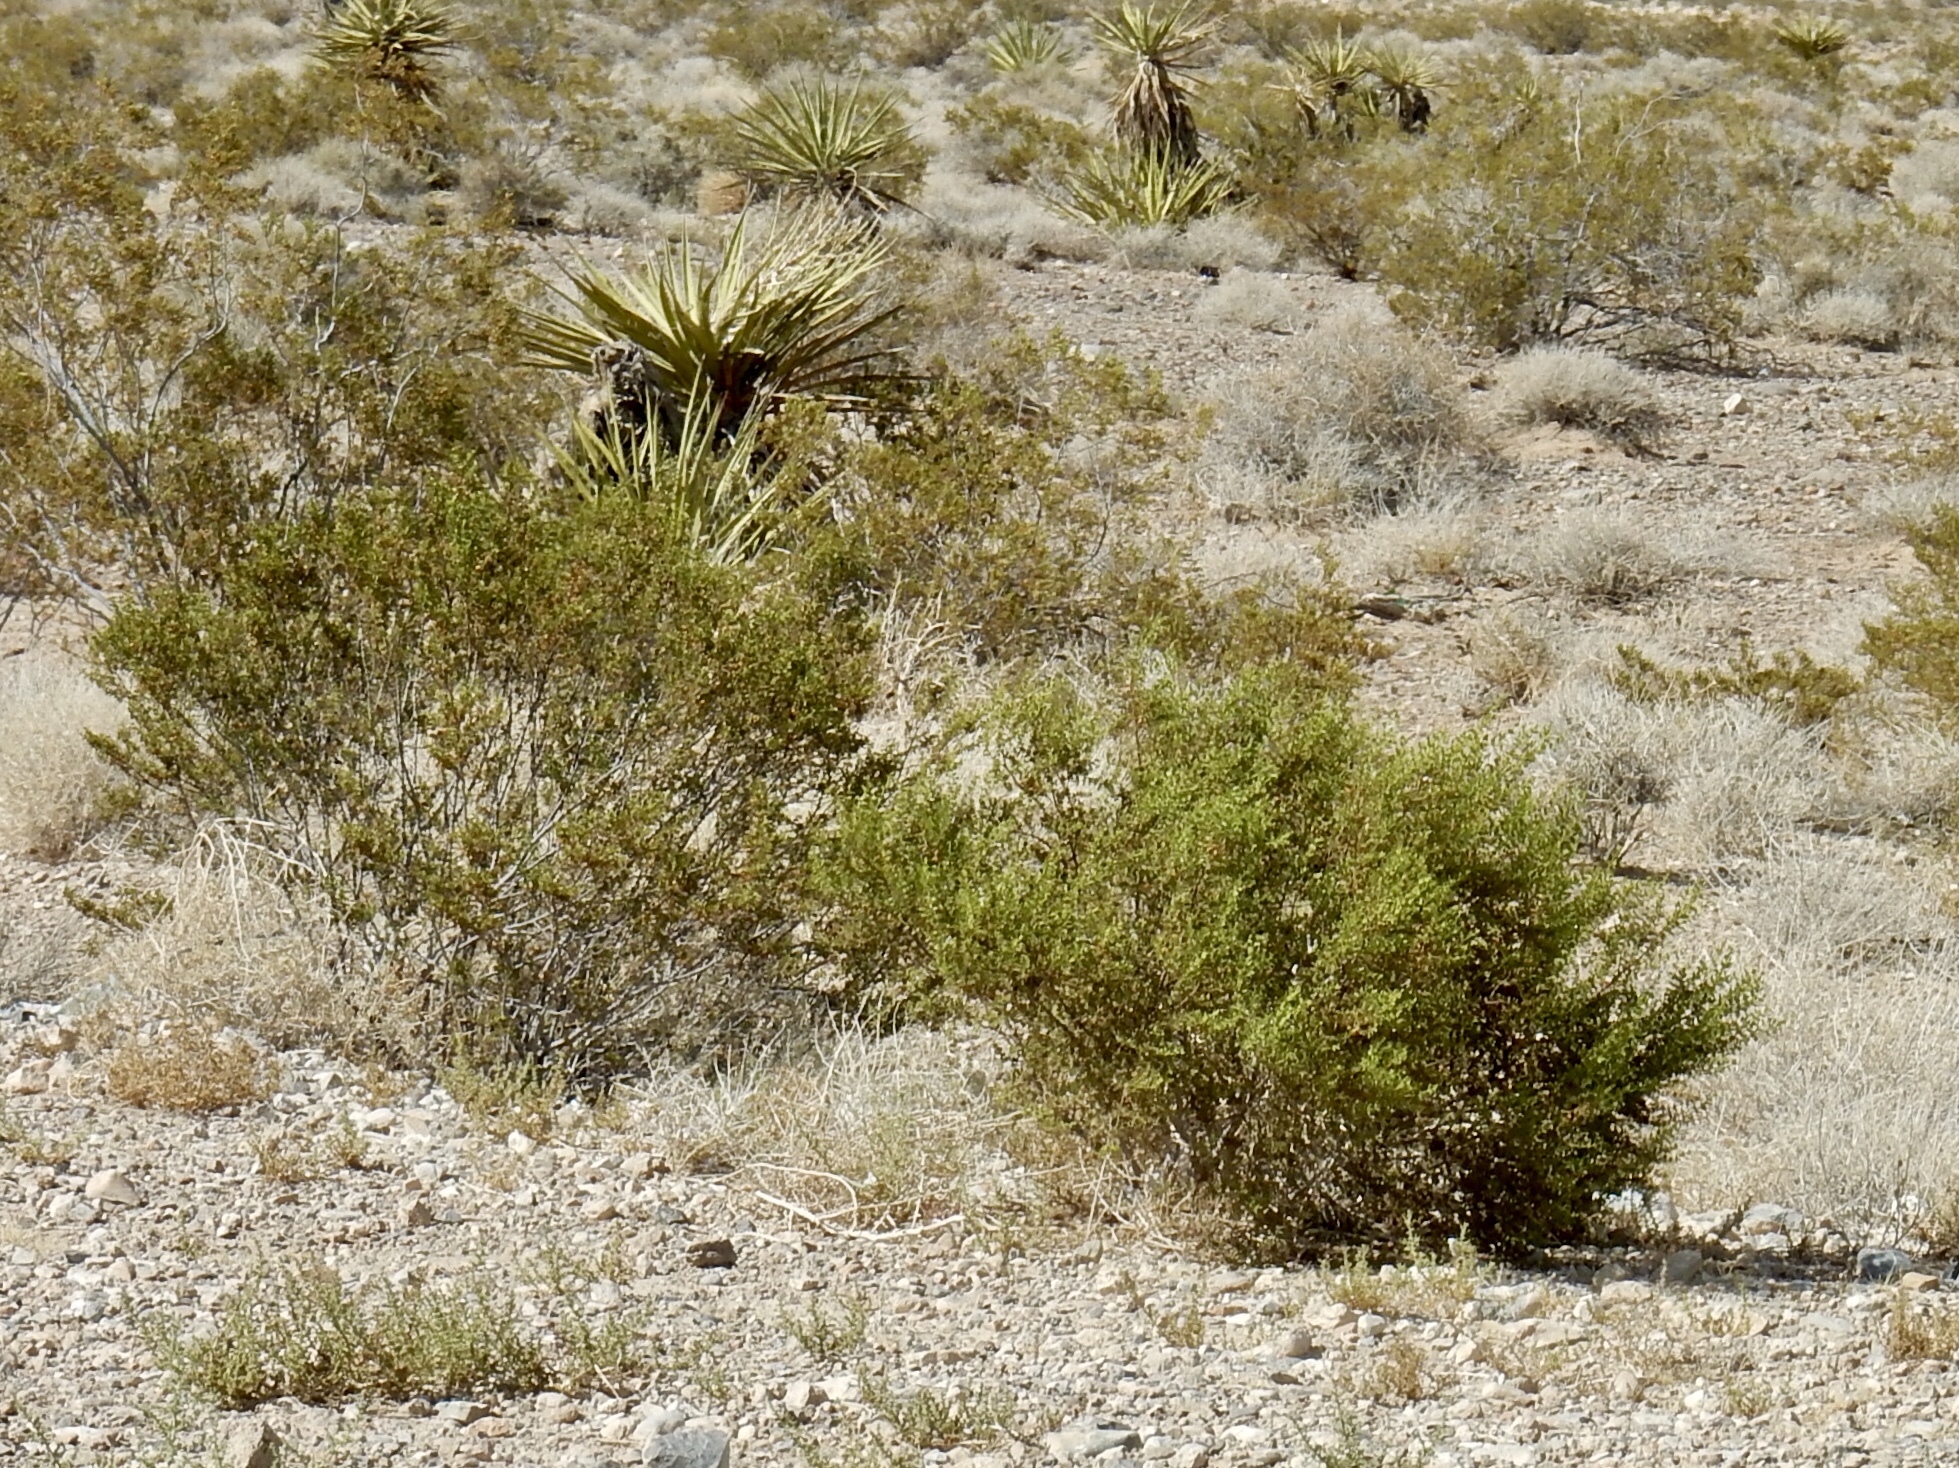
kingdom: Plantae
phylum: Tracheophyta
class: Magnoliopsida
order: Zygophyllales
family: Zygophyllaceae
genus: Larrea
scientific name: Larrea tridentata
